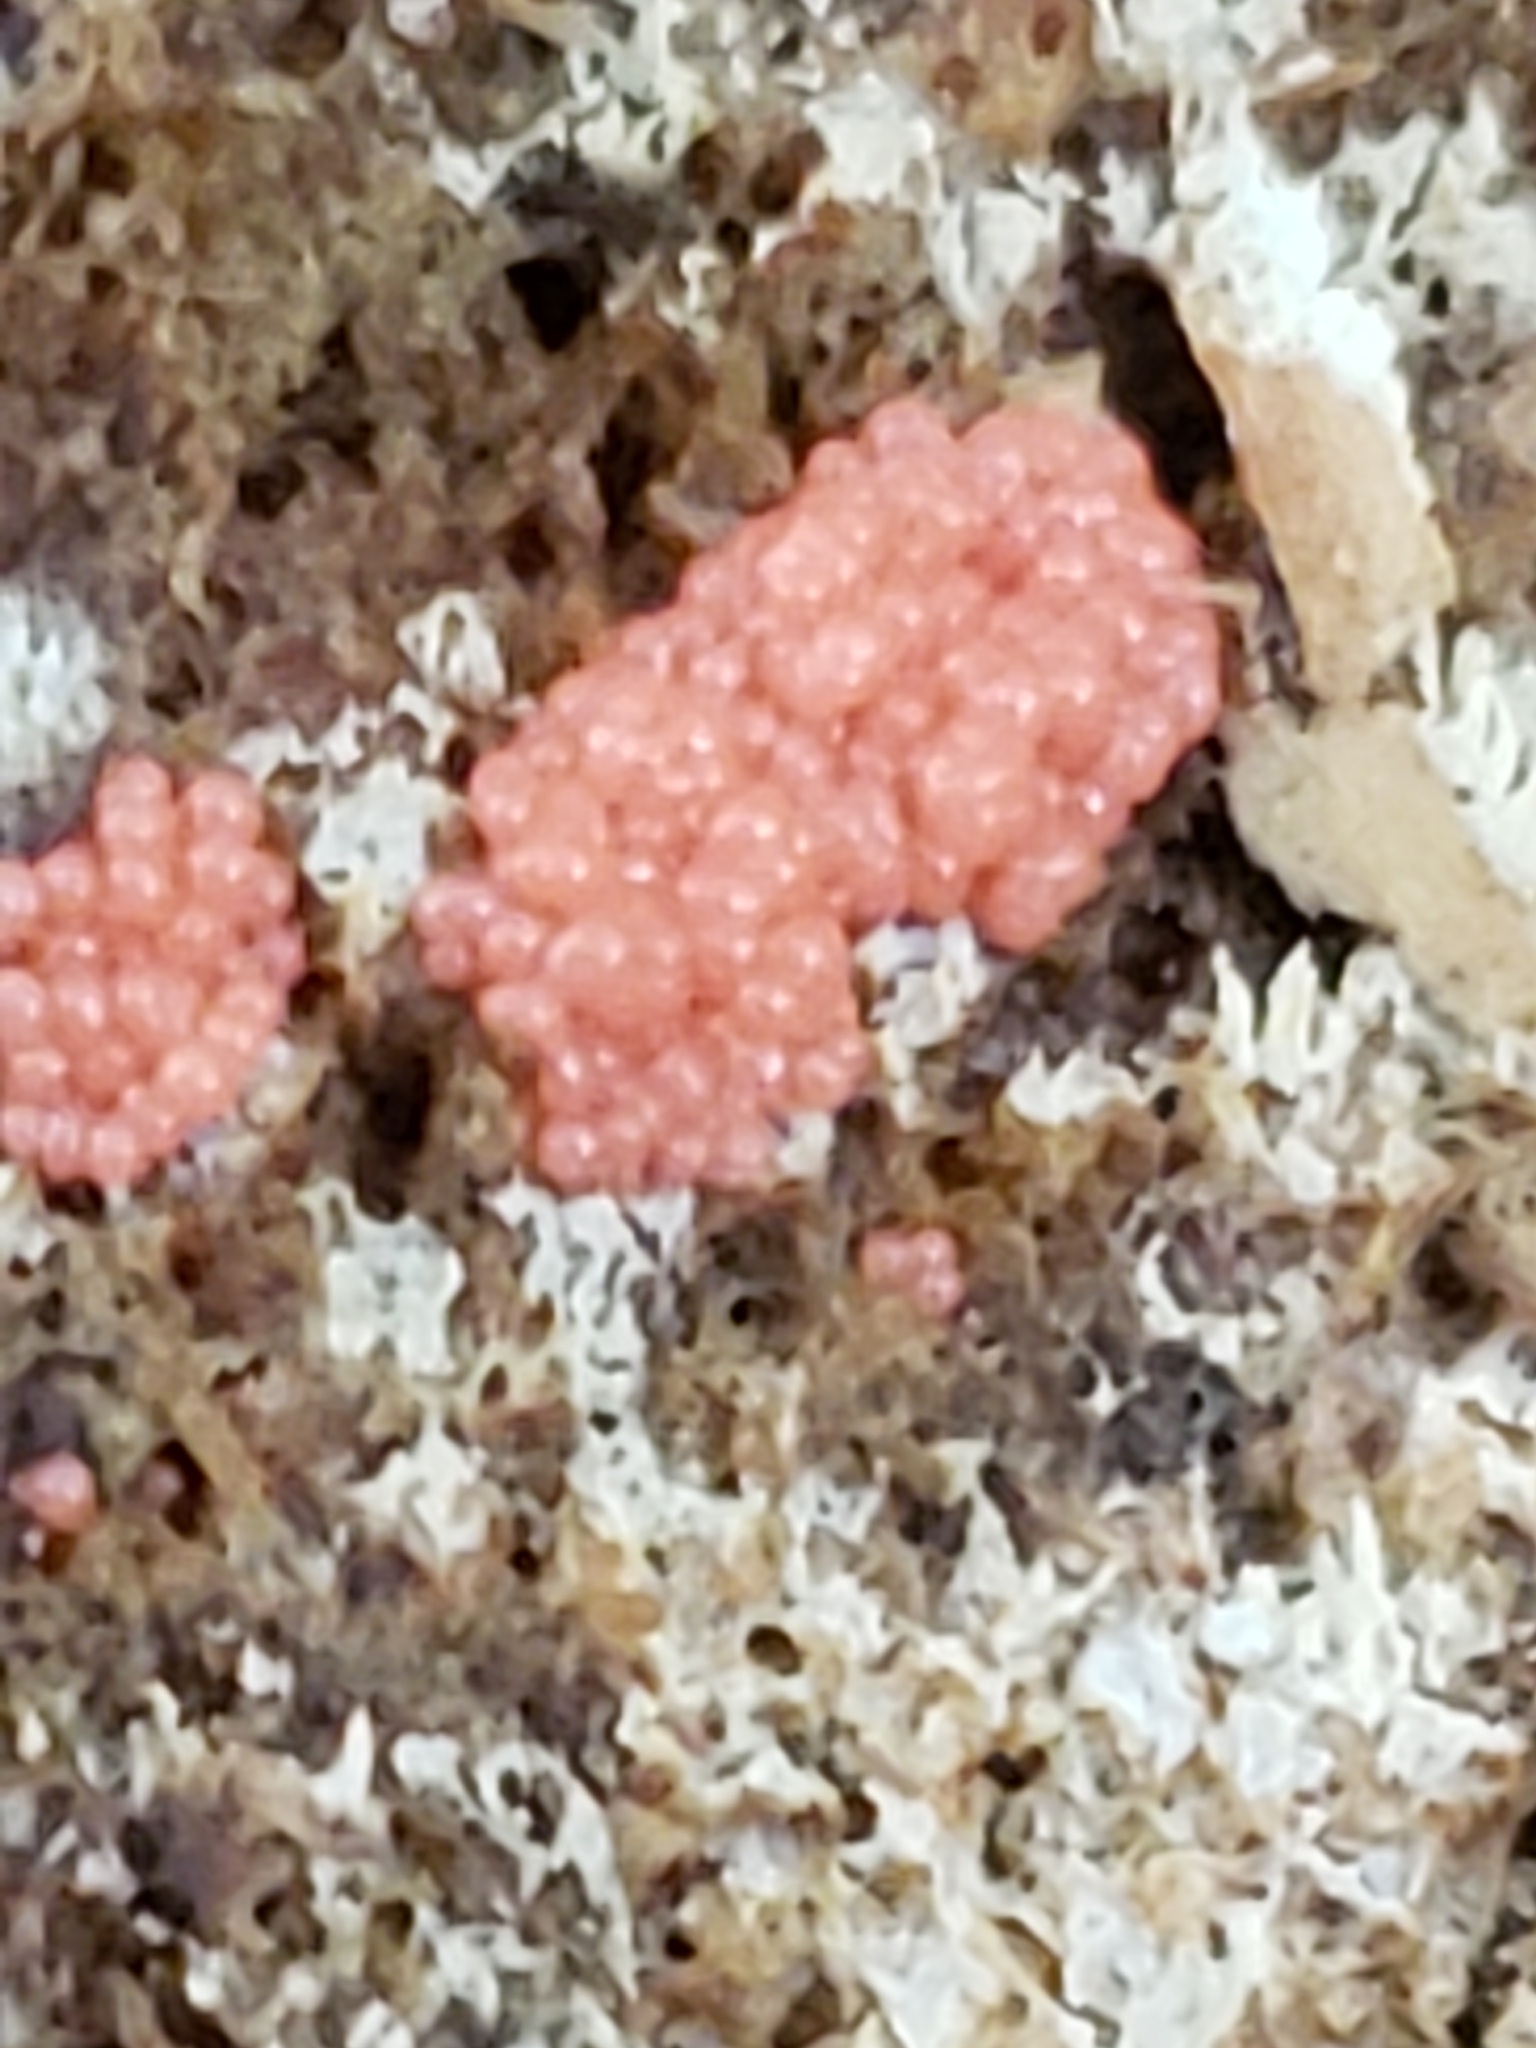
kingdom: Protozoa
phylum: Mycetozoa
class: Myxomycetes
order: Cribrariales
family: Tubiferaceae
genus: Tubifera
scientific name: Tubifera ferruginosa
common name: Red raspberry slime mold
